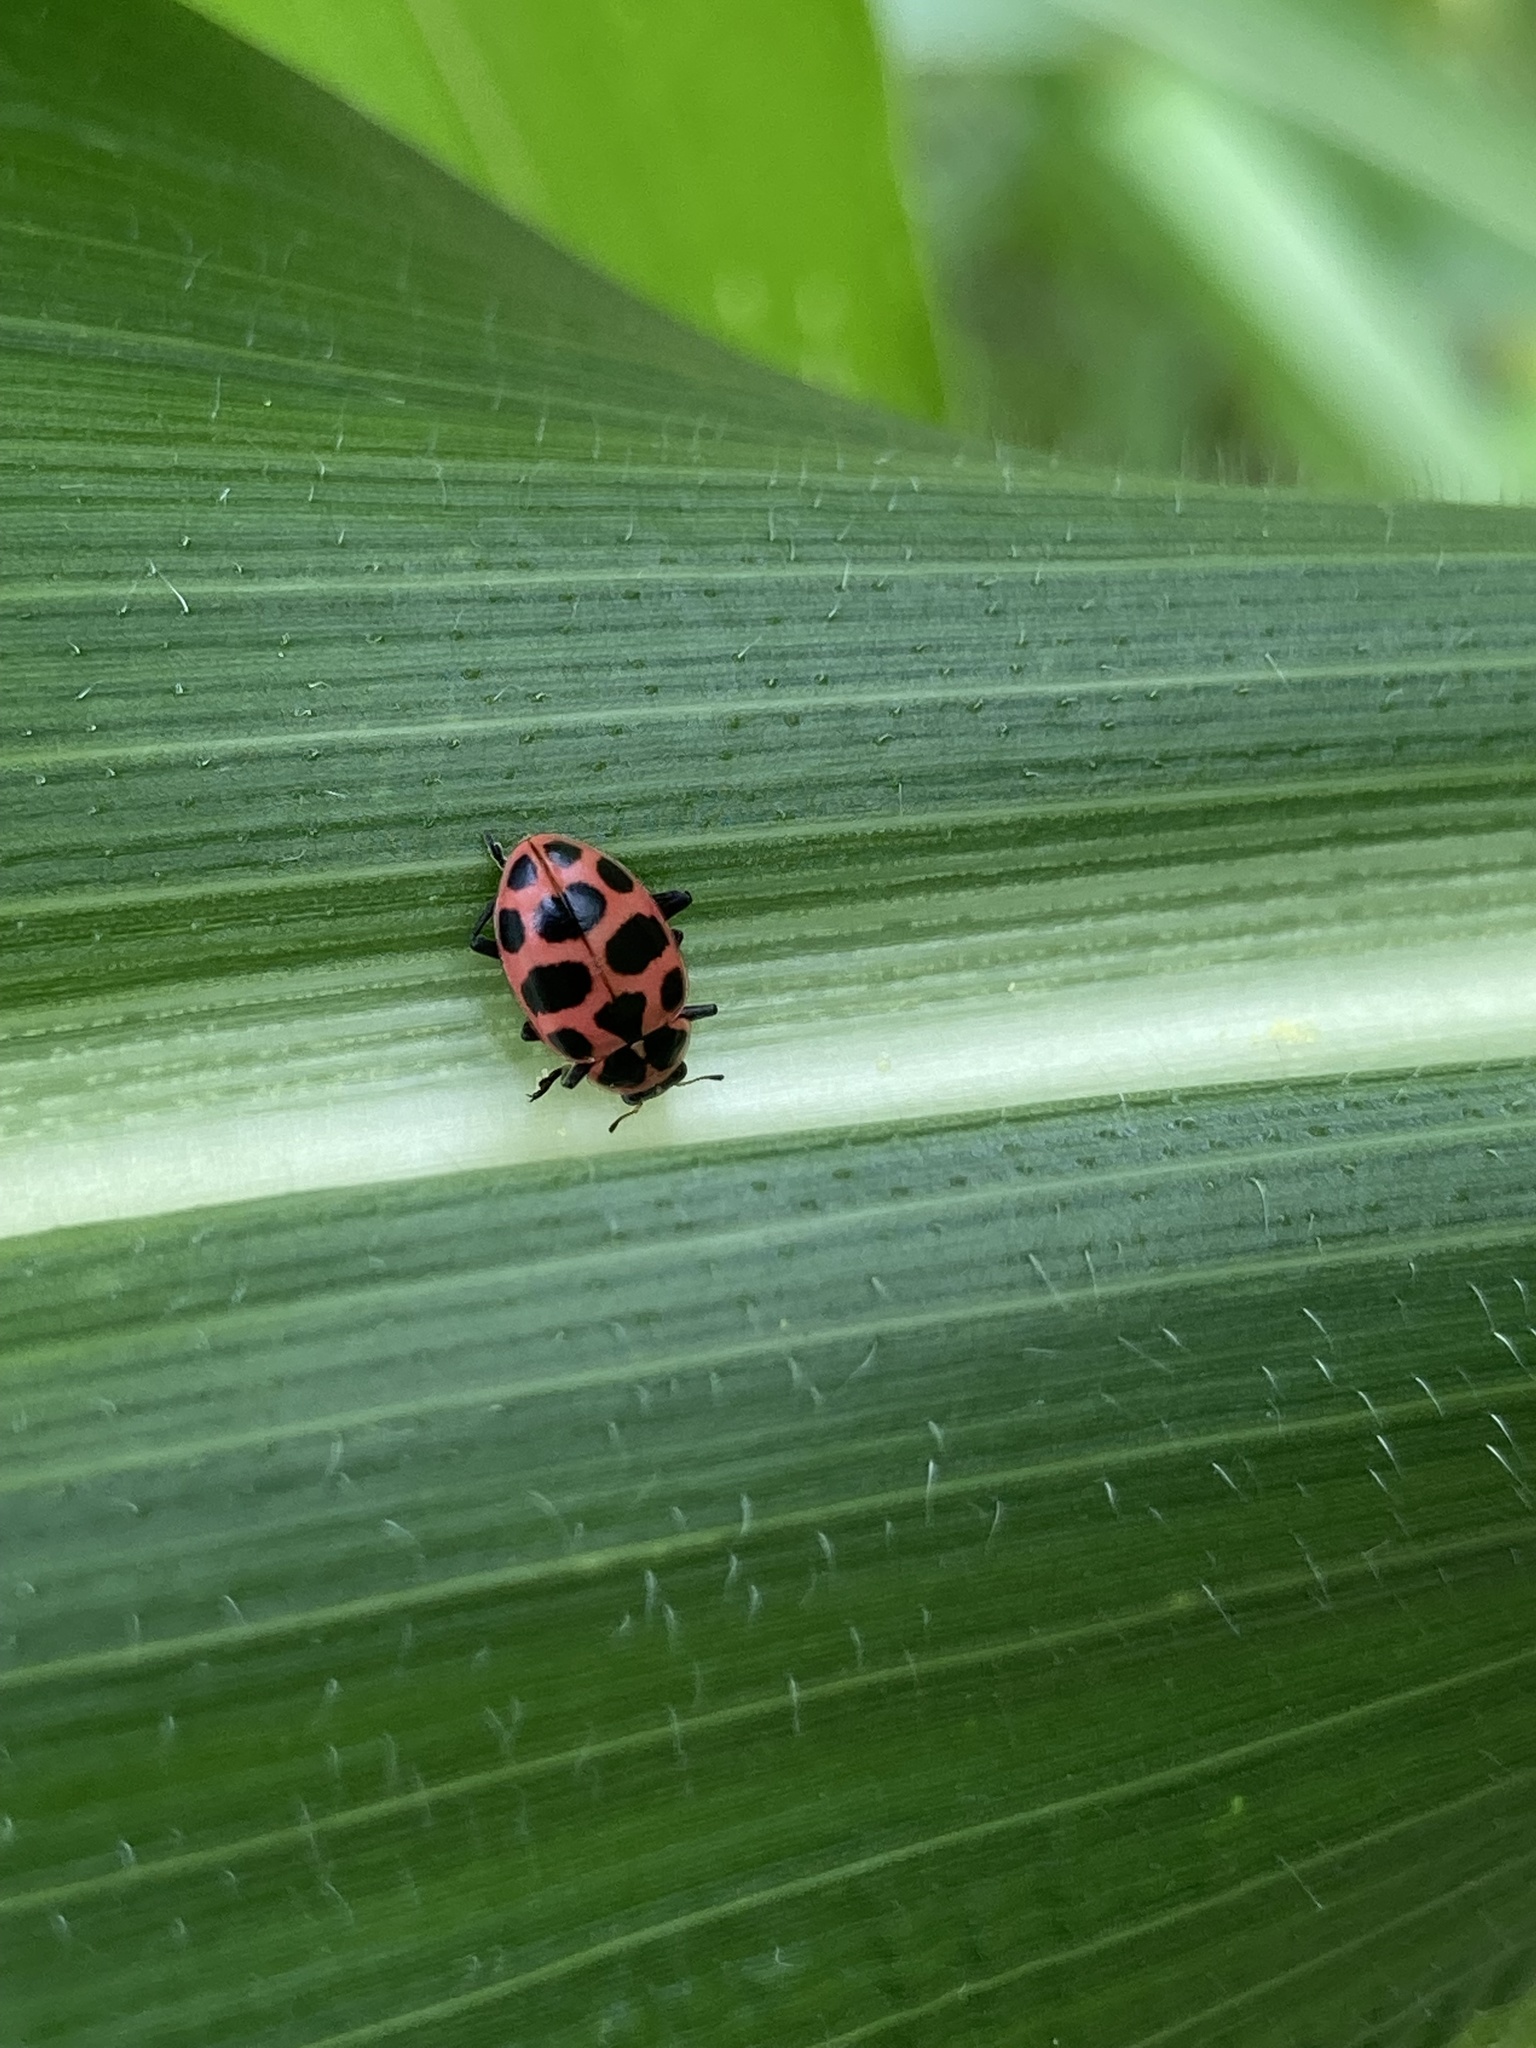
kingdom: Animalia
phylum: Arthropoda
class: Insecta
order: Coleoptera
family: Coccinellidae
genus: Coleomegilla
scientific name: Coleomegilla maculata
